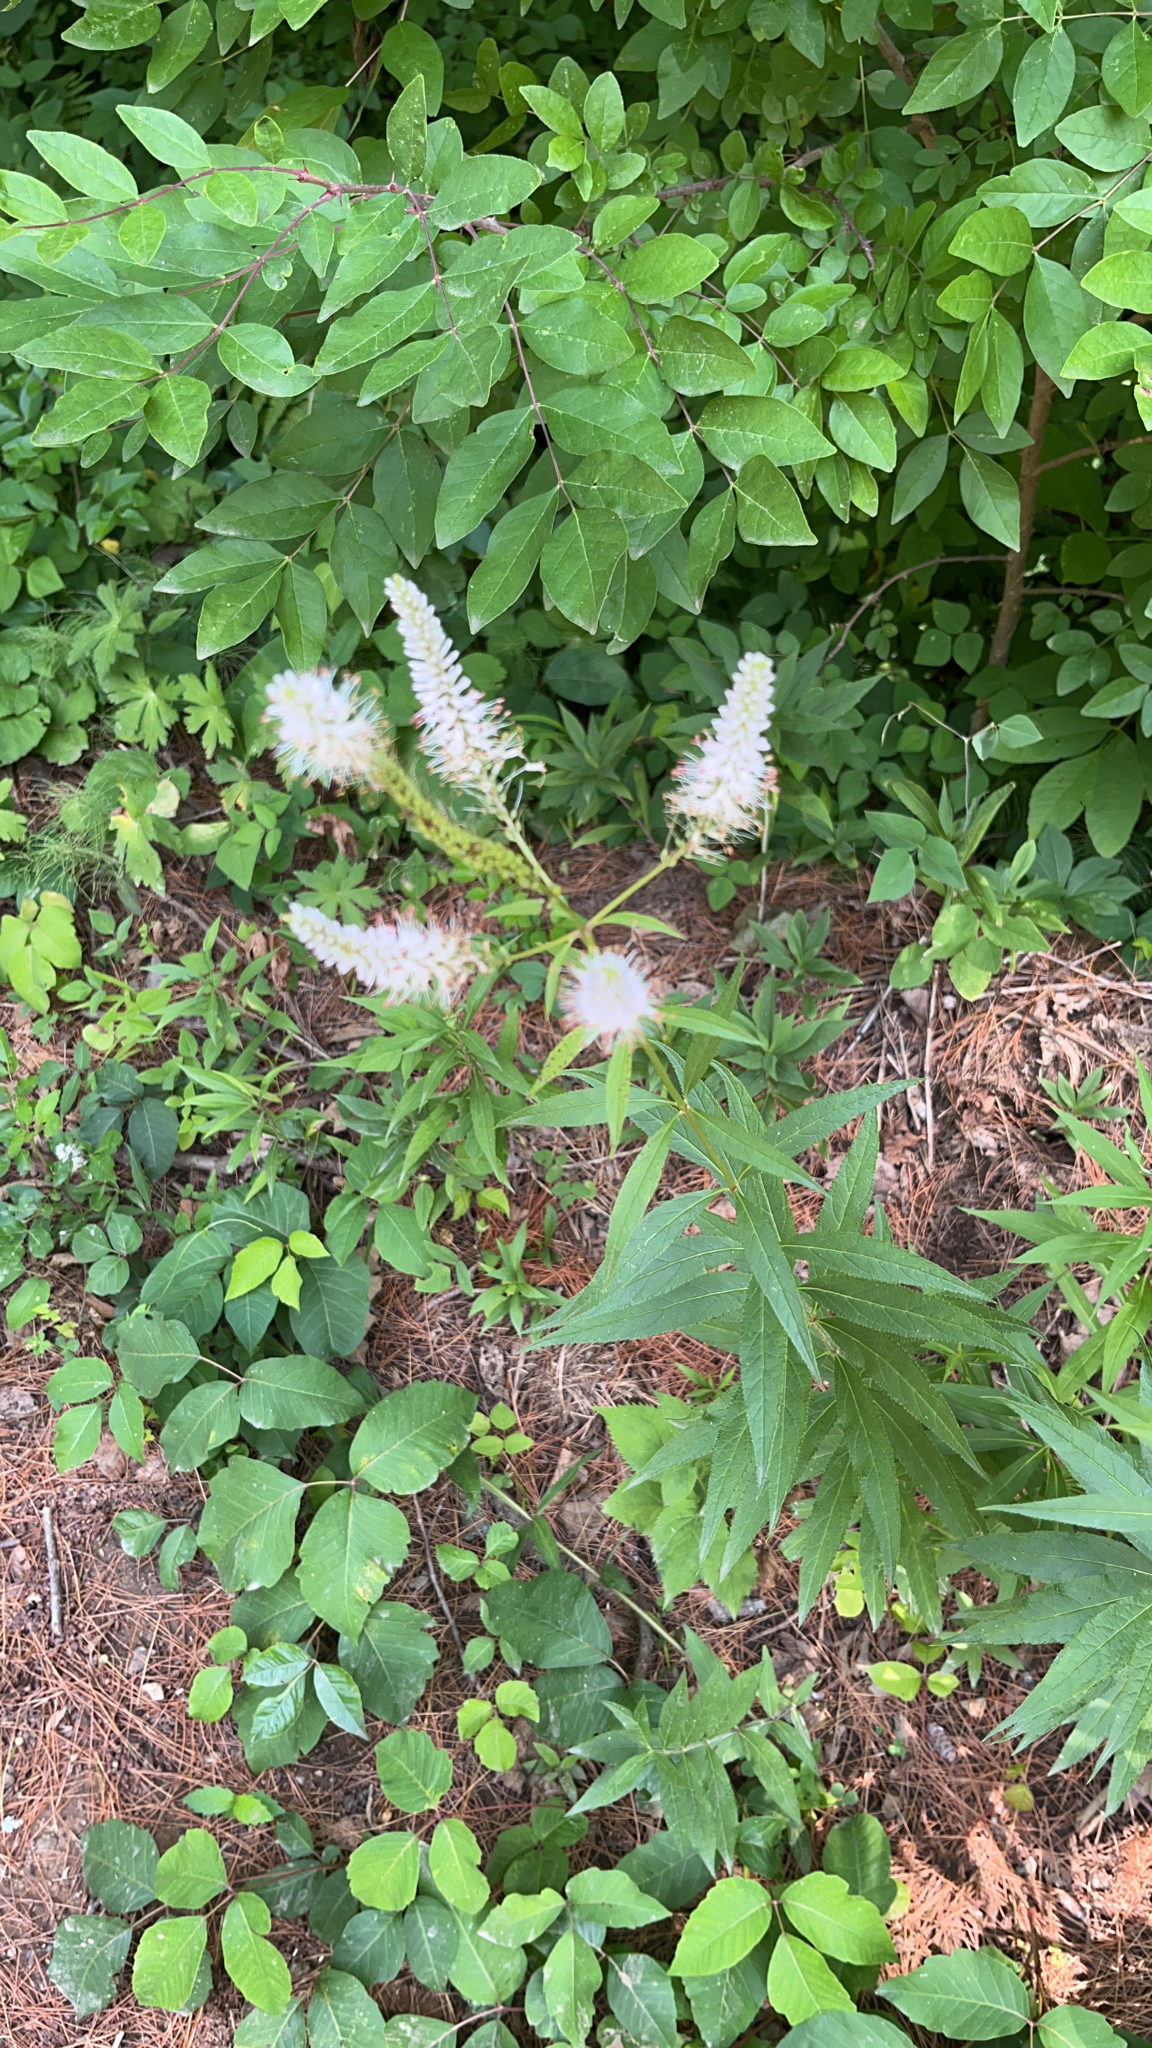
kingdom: Plantae
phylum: Tracheophyta
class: Magnoliopsida
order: Lamiales
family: Plantaginaceae
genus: Veronicastrum
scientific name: Veronicastrum virginicum
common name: Blackroot
